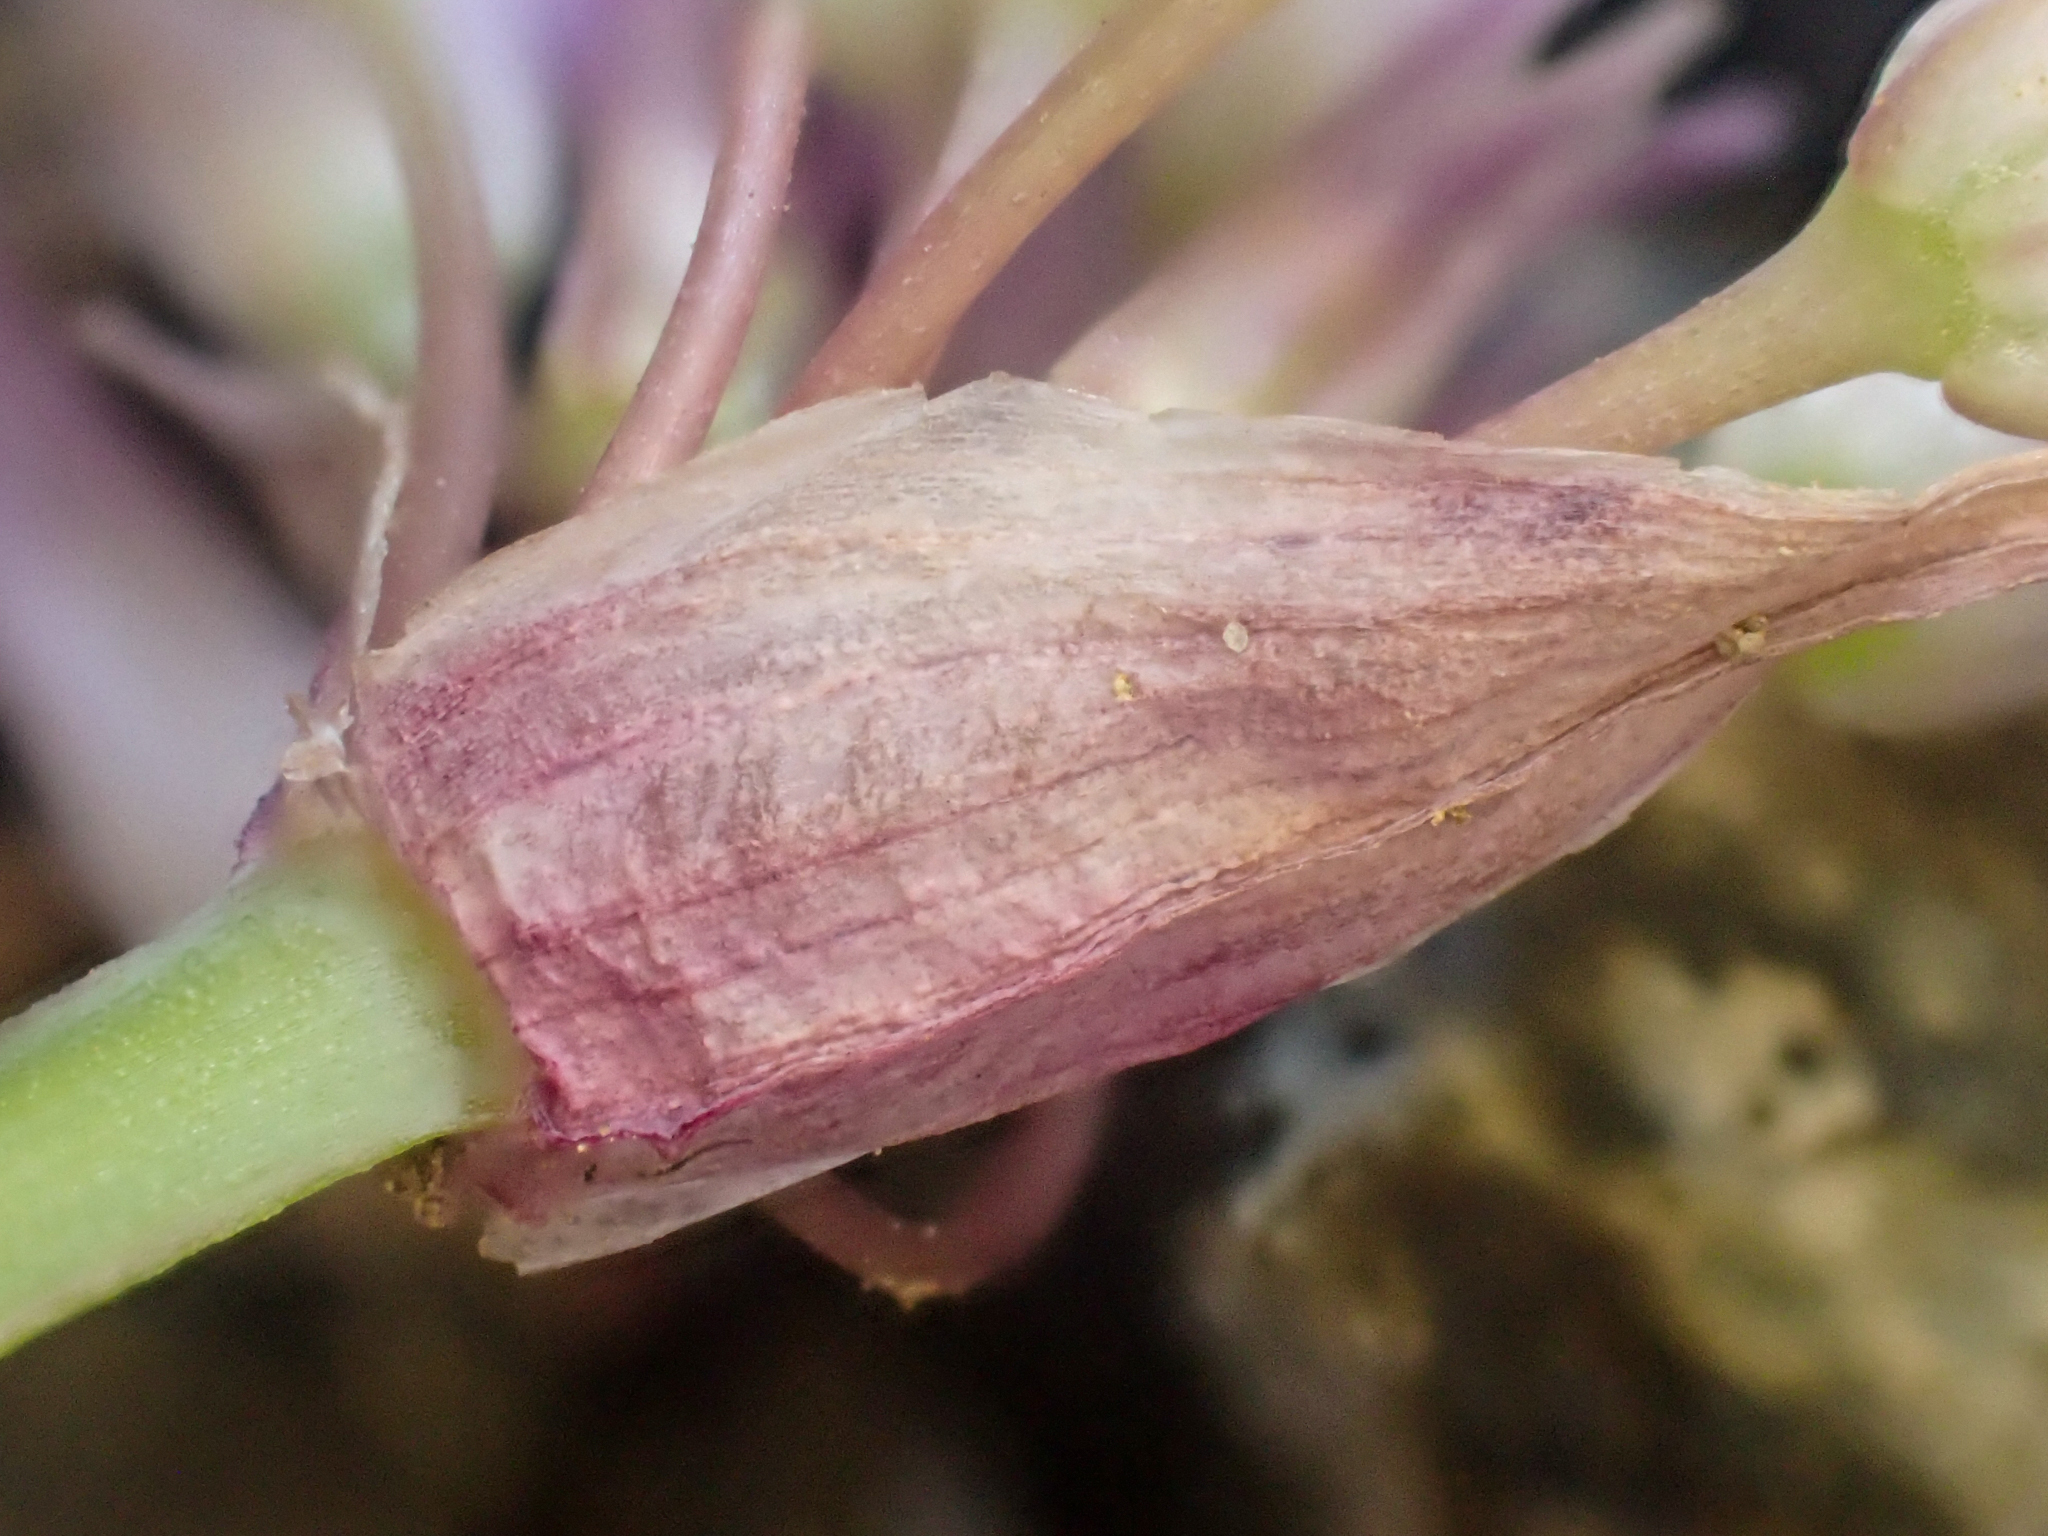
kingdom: Plantae
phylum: Tracheophyta
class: Liliopsida
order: Asparagales
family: Amaryllidaceae
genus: Allium
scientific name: Allium falcifolium
